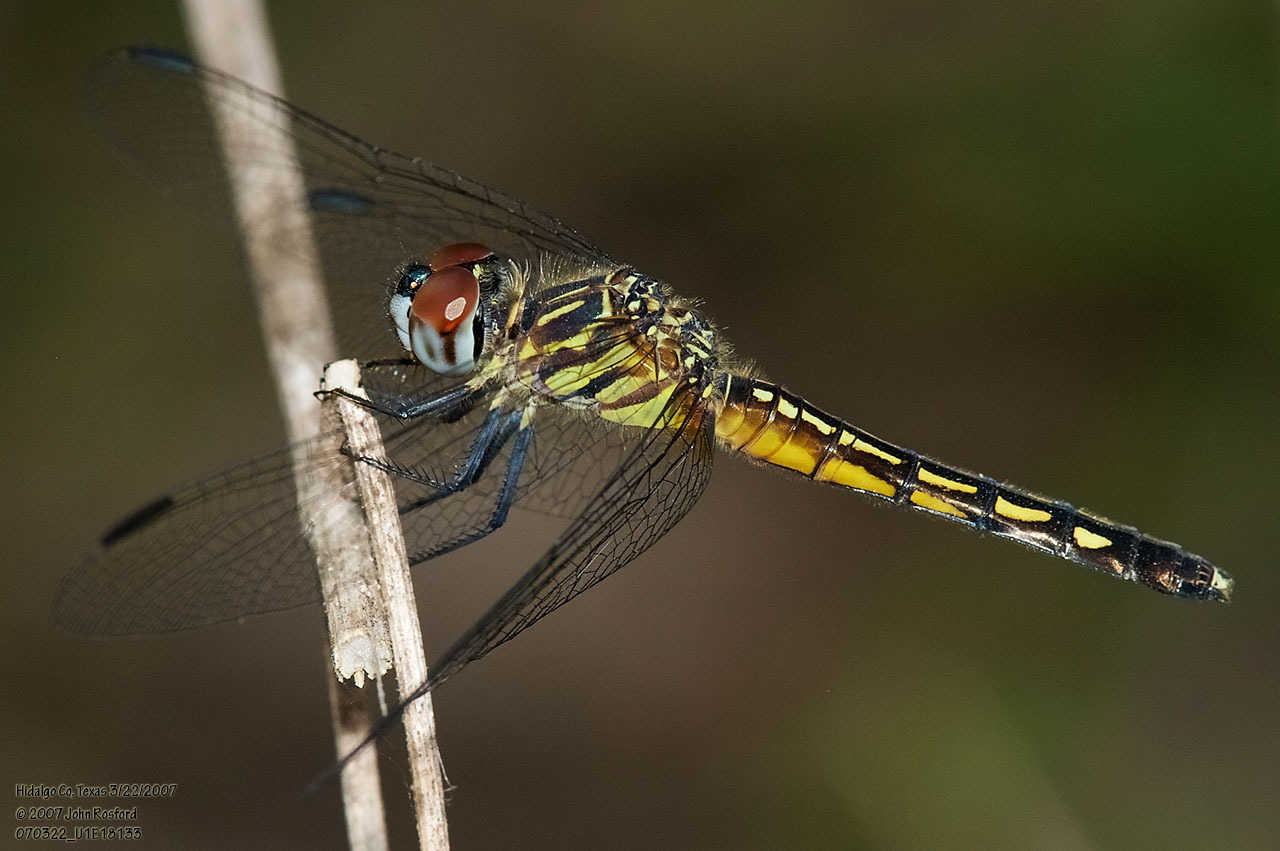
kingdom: Animalia
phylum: Arthropoda
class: Insecta
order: Odonata
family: Libellulidae
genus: Pachydiplax
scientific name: Pachydiplax longipennis
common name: Blue dasher
